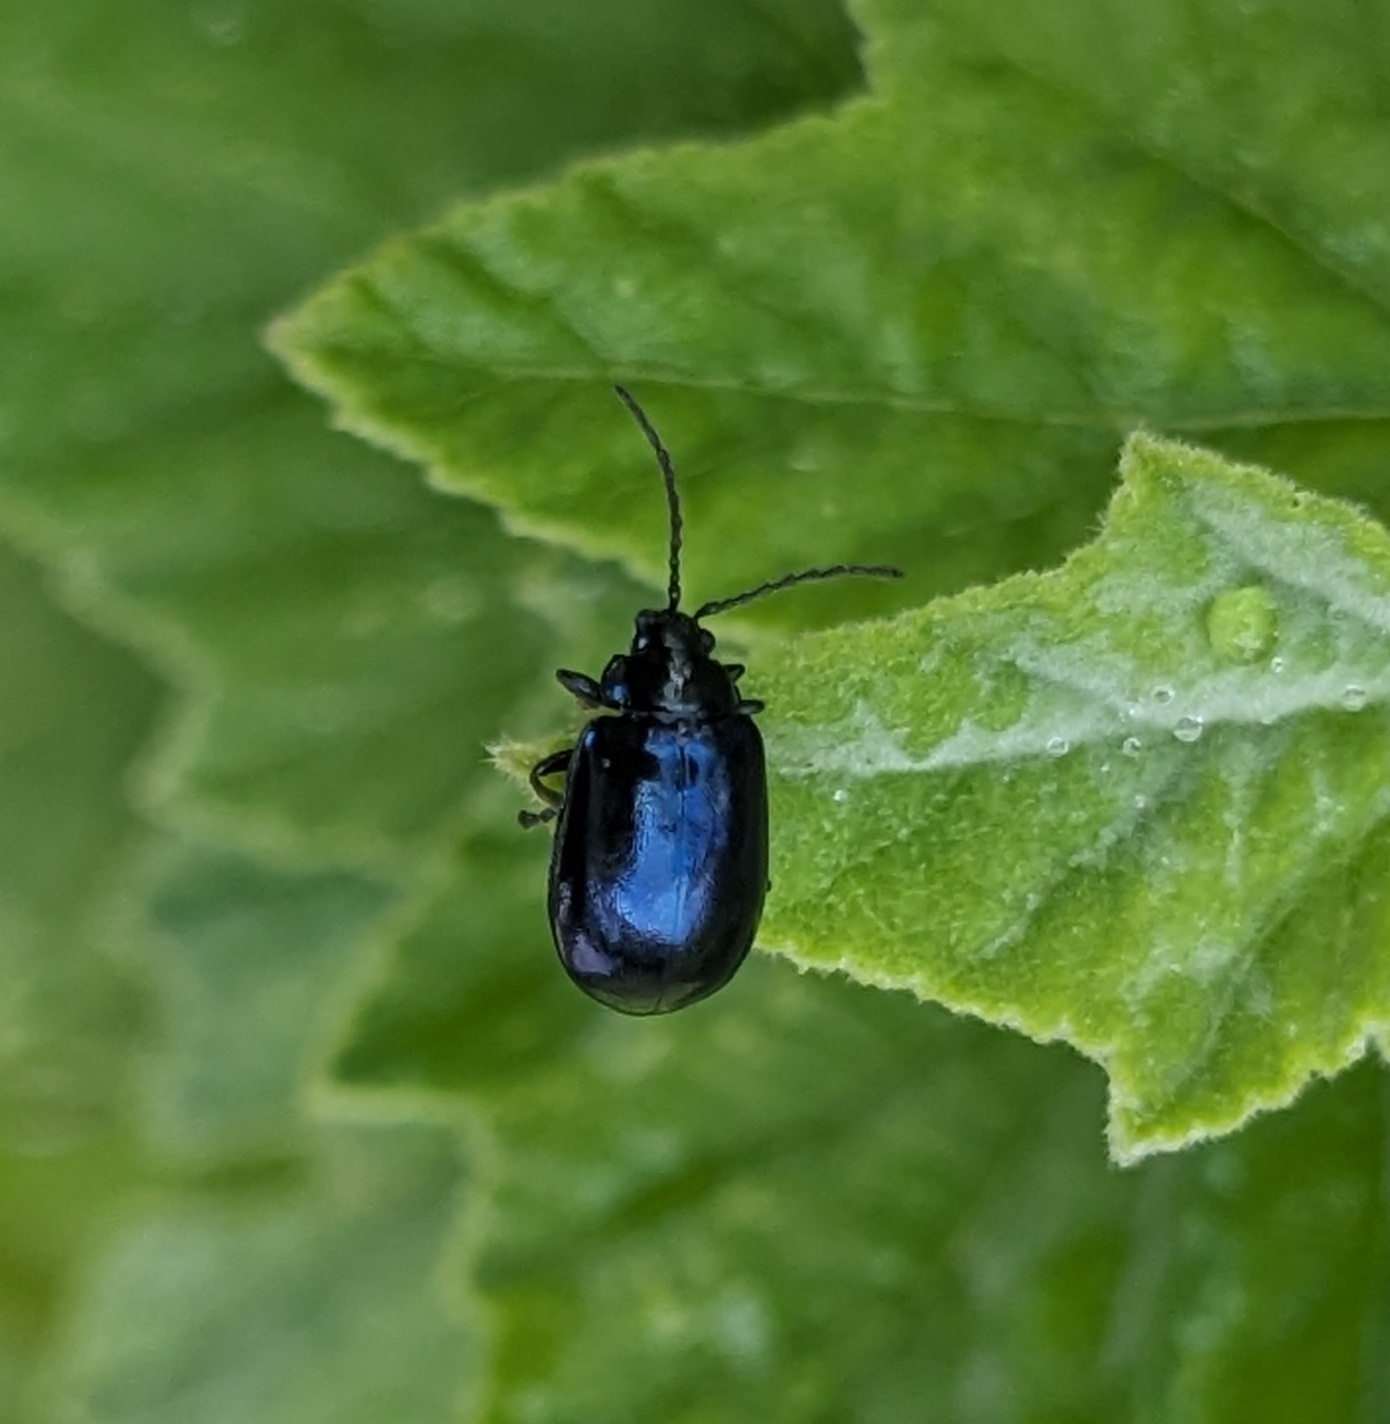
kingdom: Animalia
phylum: Arthropoda
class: Insecta
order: Coleoptera
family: Chrysomelidae
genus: Agelastica
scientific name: Agelastica alni
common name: Alder leaf beetle
